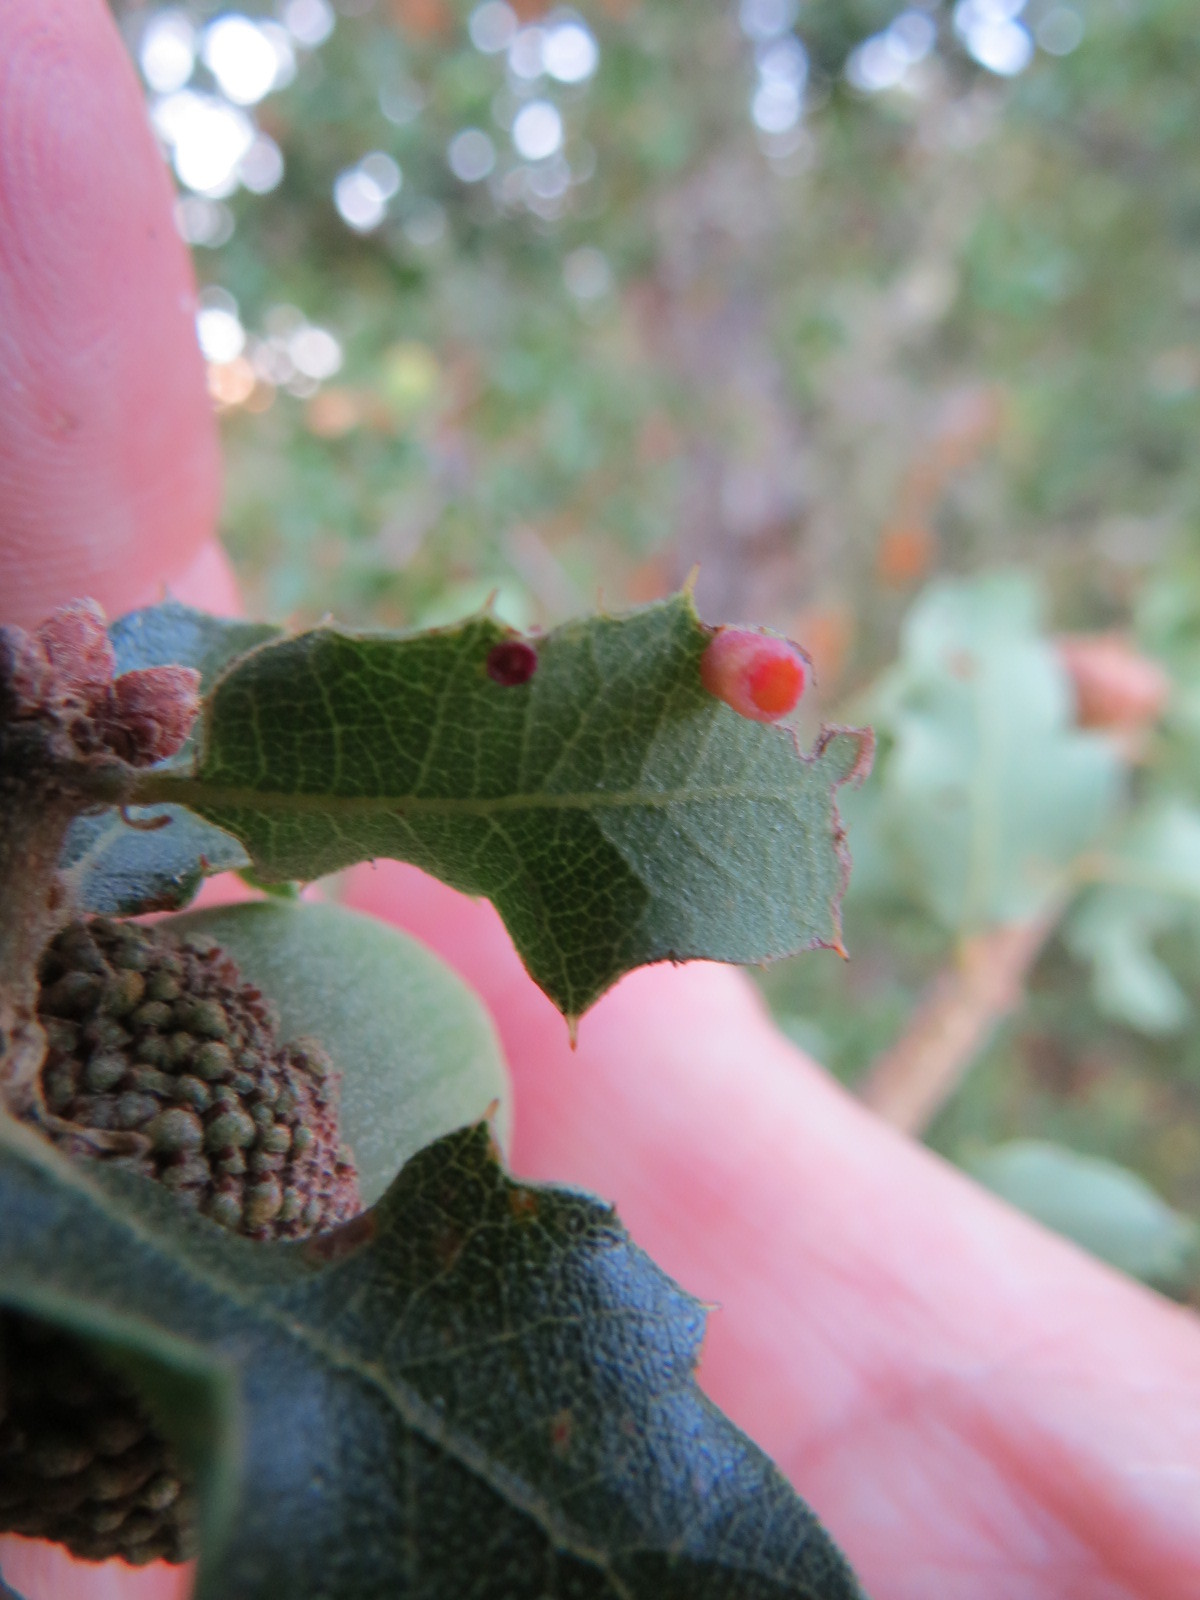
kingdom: Animalia
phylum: Arthropoda
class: Insecta
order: Hymenoptera
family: Cynipidae
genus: Phylloteras
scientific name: Phylloteras
